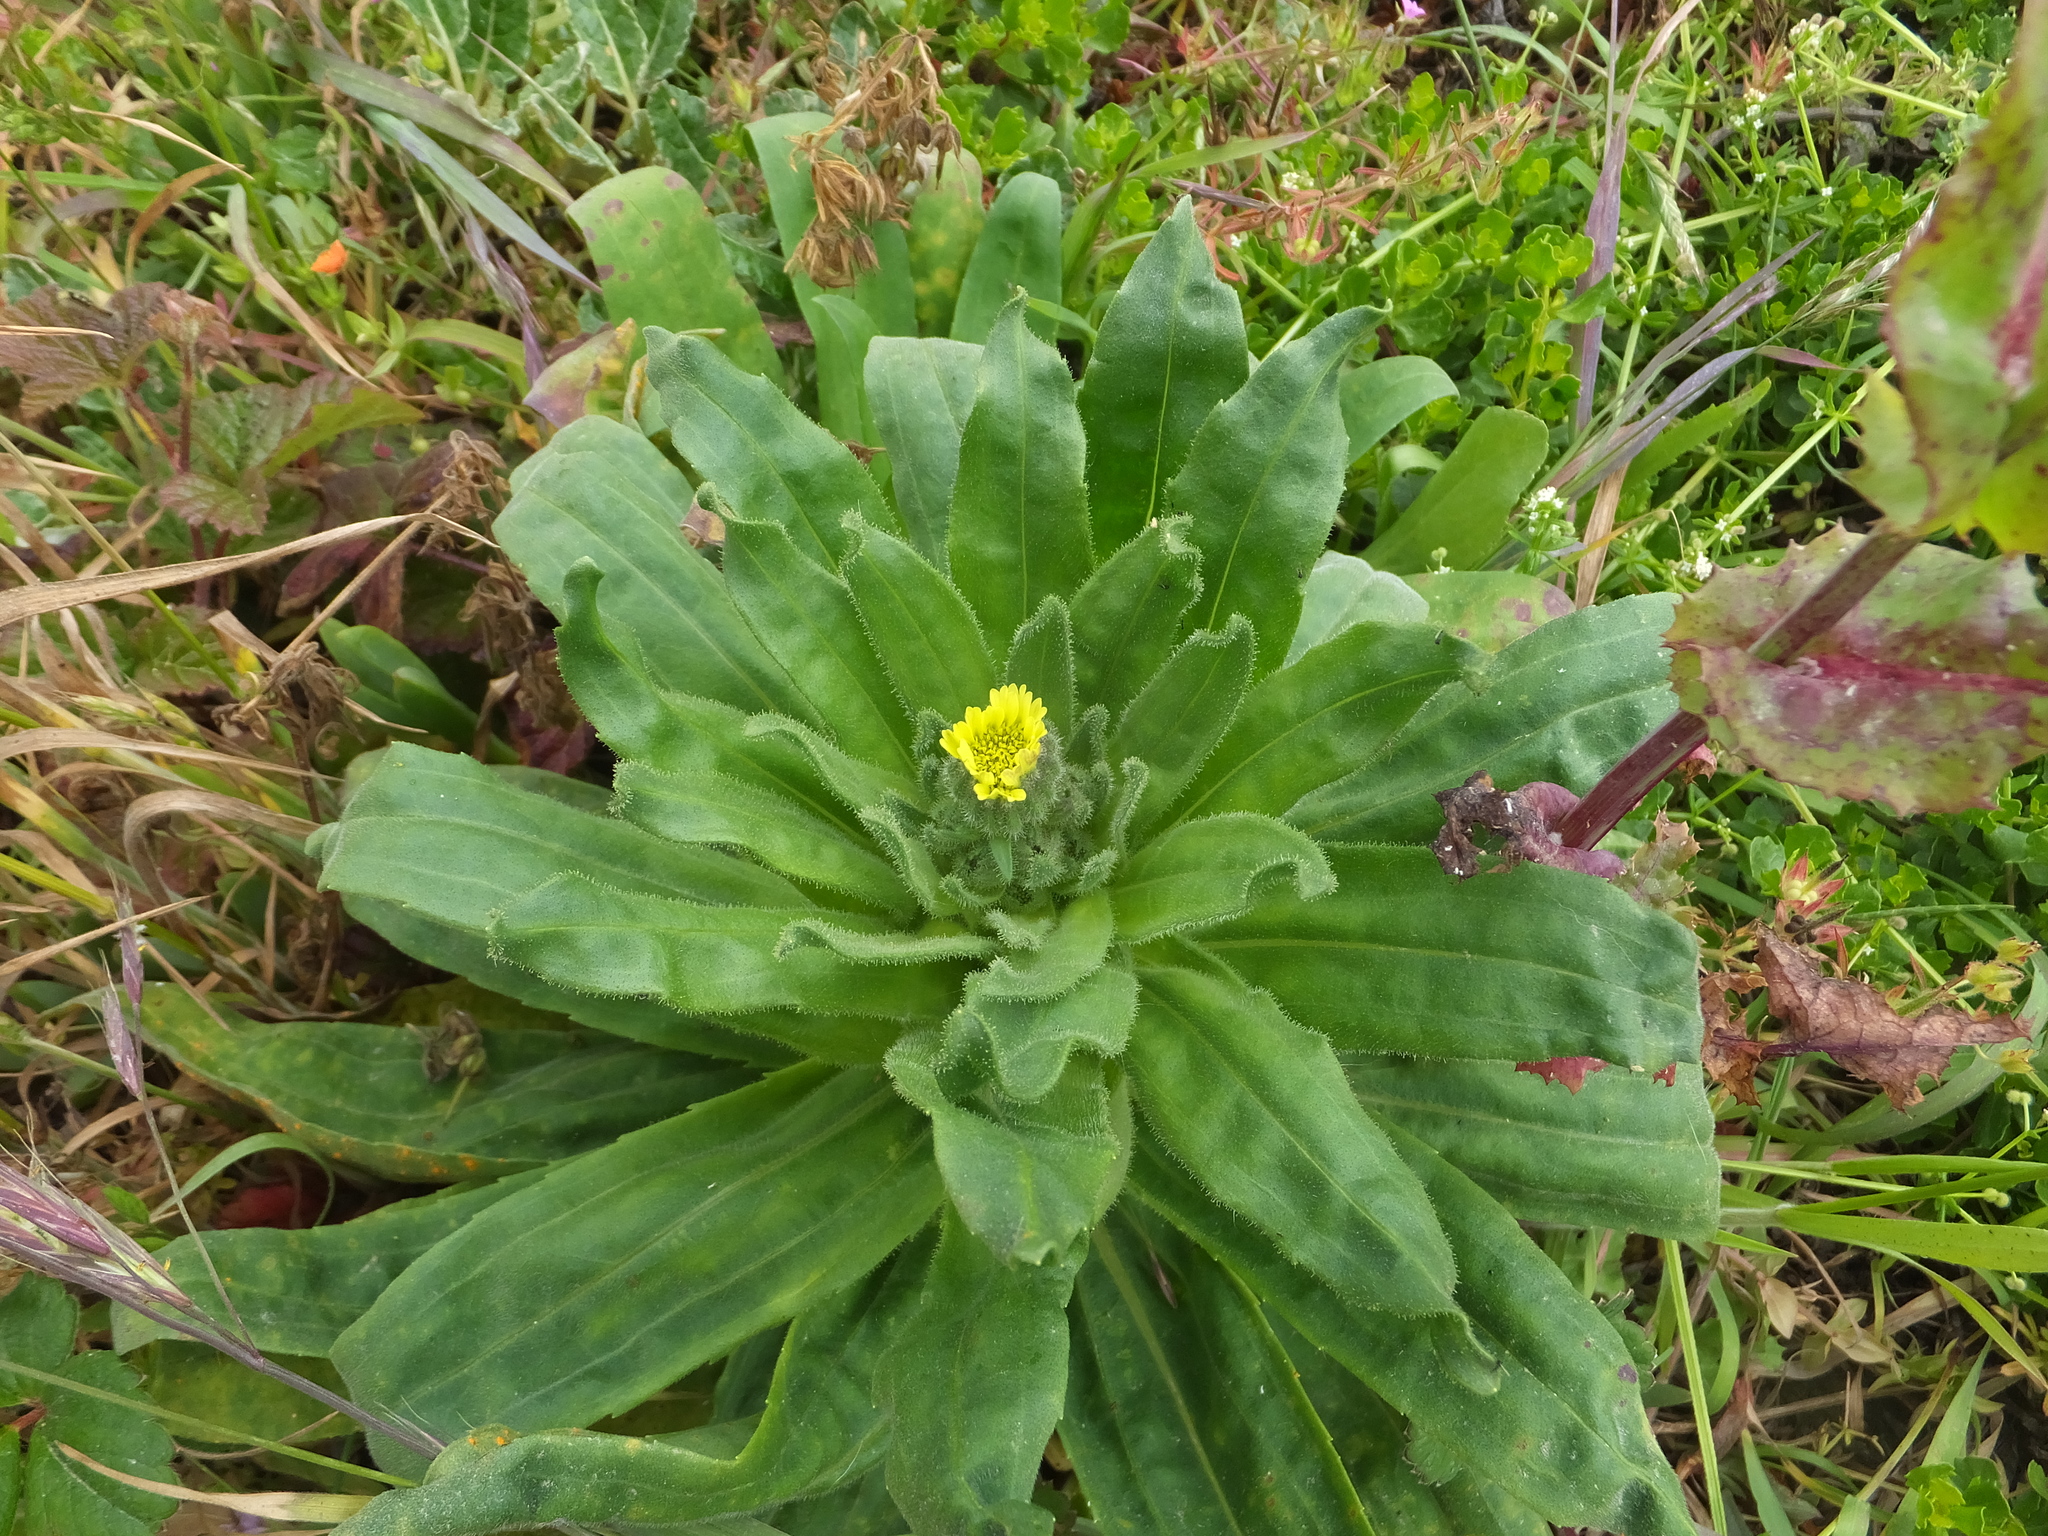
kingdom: Plantae
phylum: Tracheophyta
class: Magnoliopsida
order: Asterales
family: Asteraceae
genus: Madia
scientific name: Madia sativa
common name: Coast tarweed
